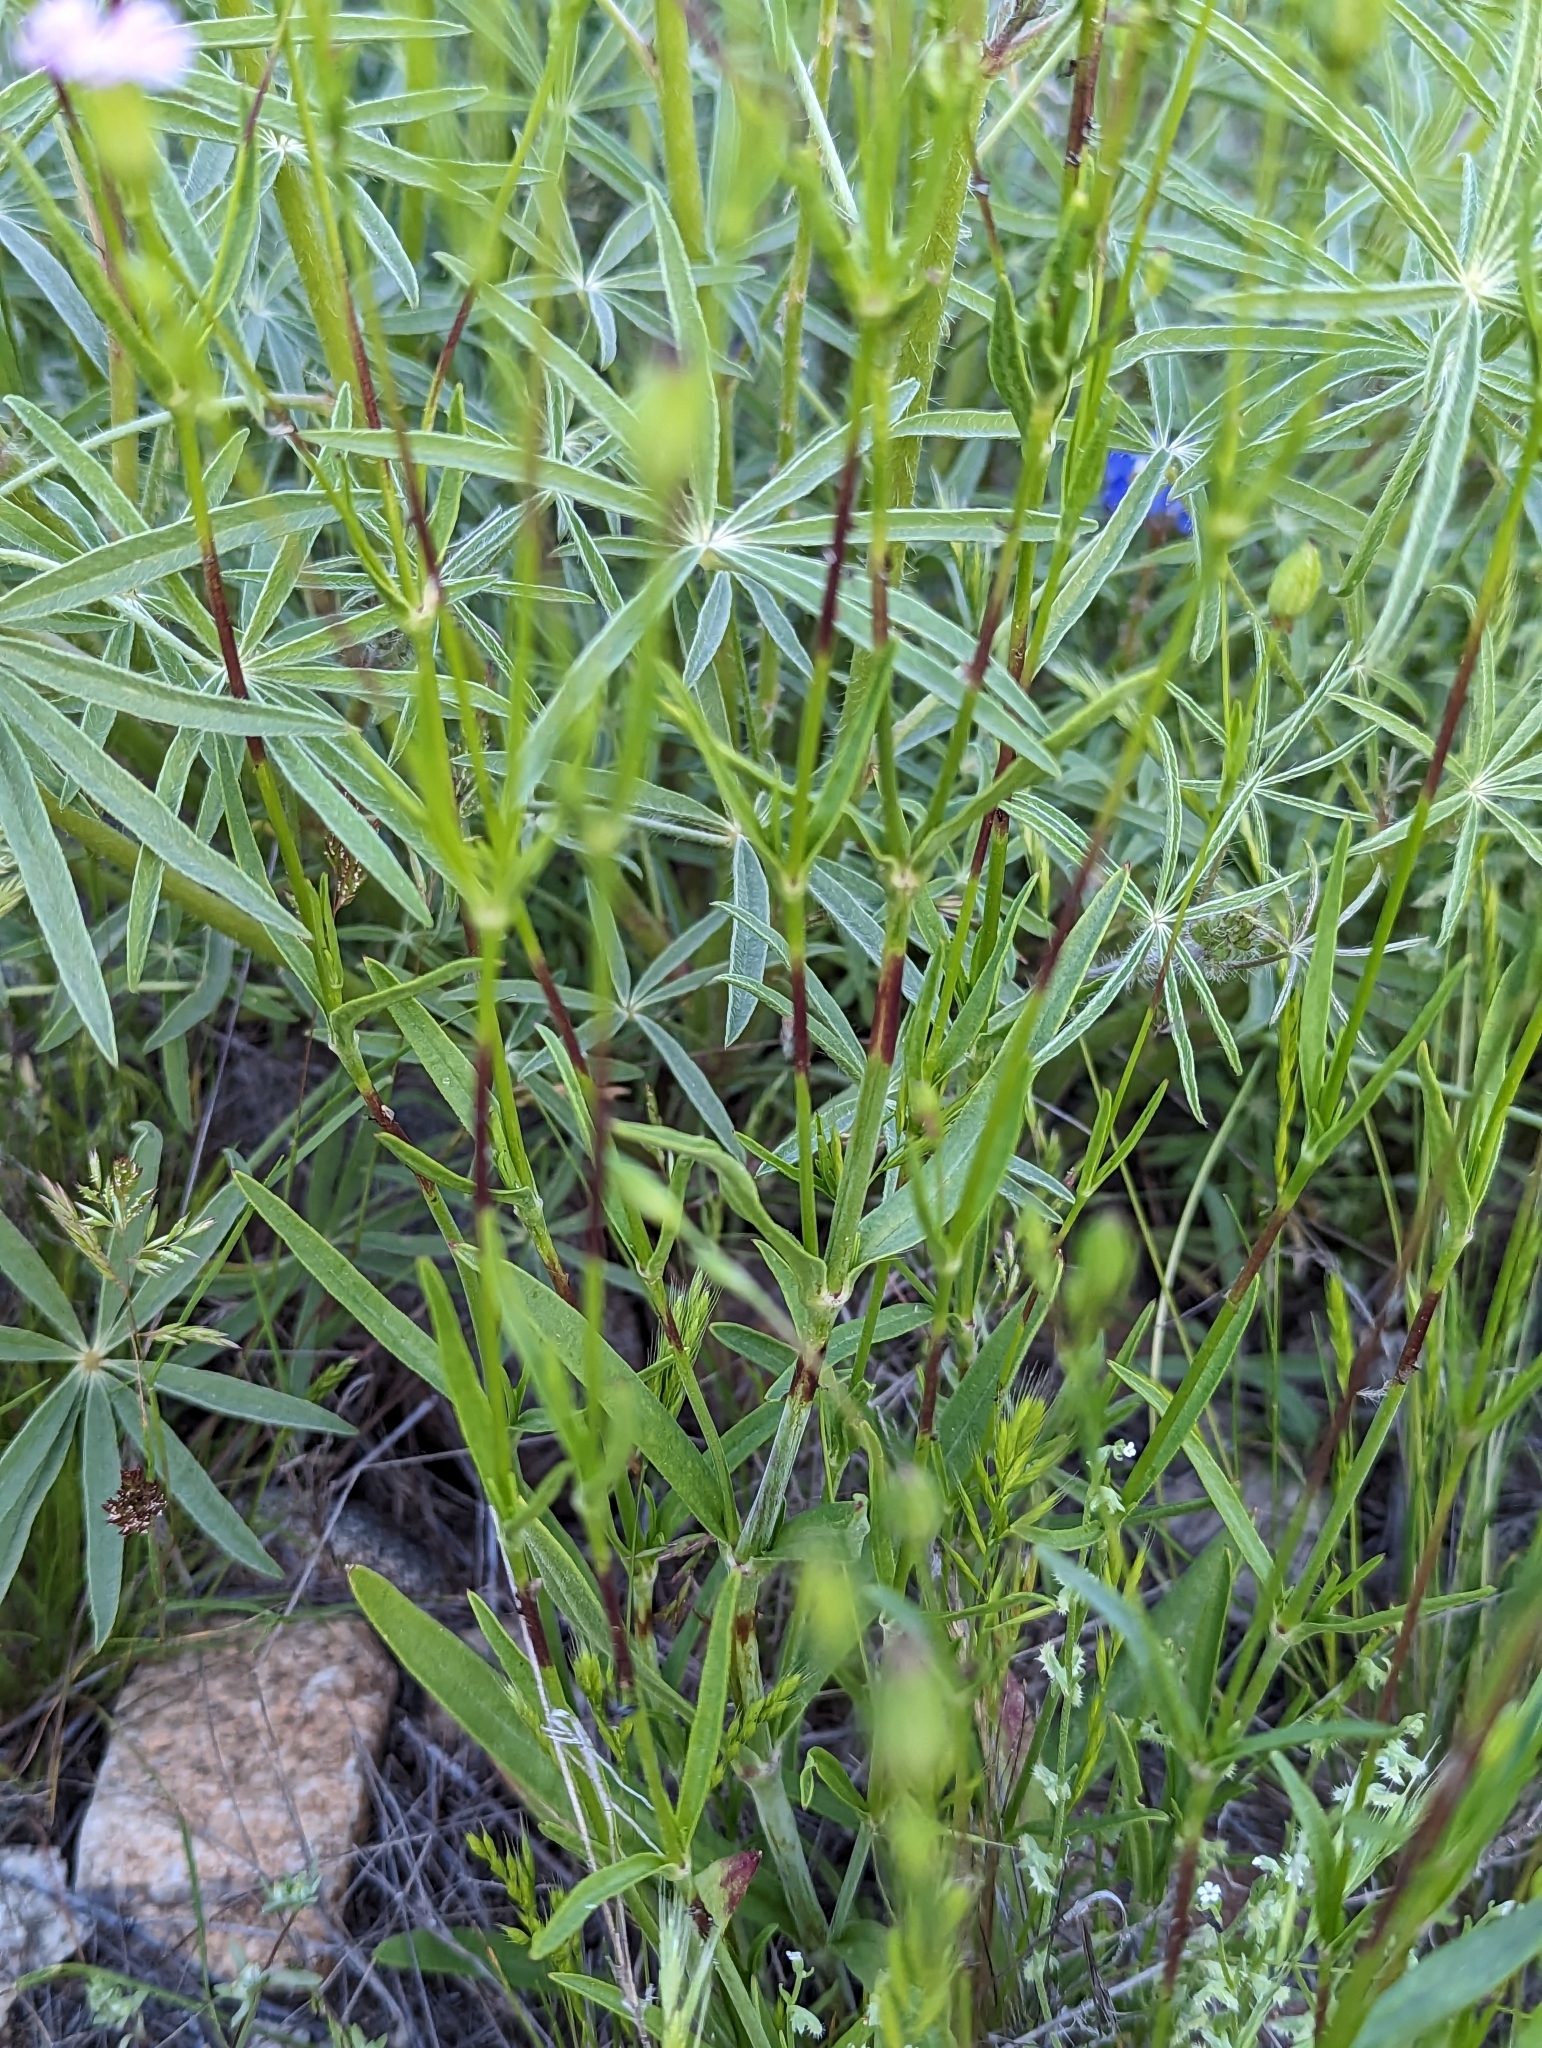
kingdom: Plantae
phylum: Tracheophyta
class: Magnoliopsida
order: Caryophyllales
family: Caryophyllaceae
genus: Silene
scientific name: Silene antirrhina
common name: Sleepy catchfly
